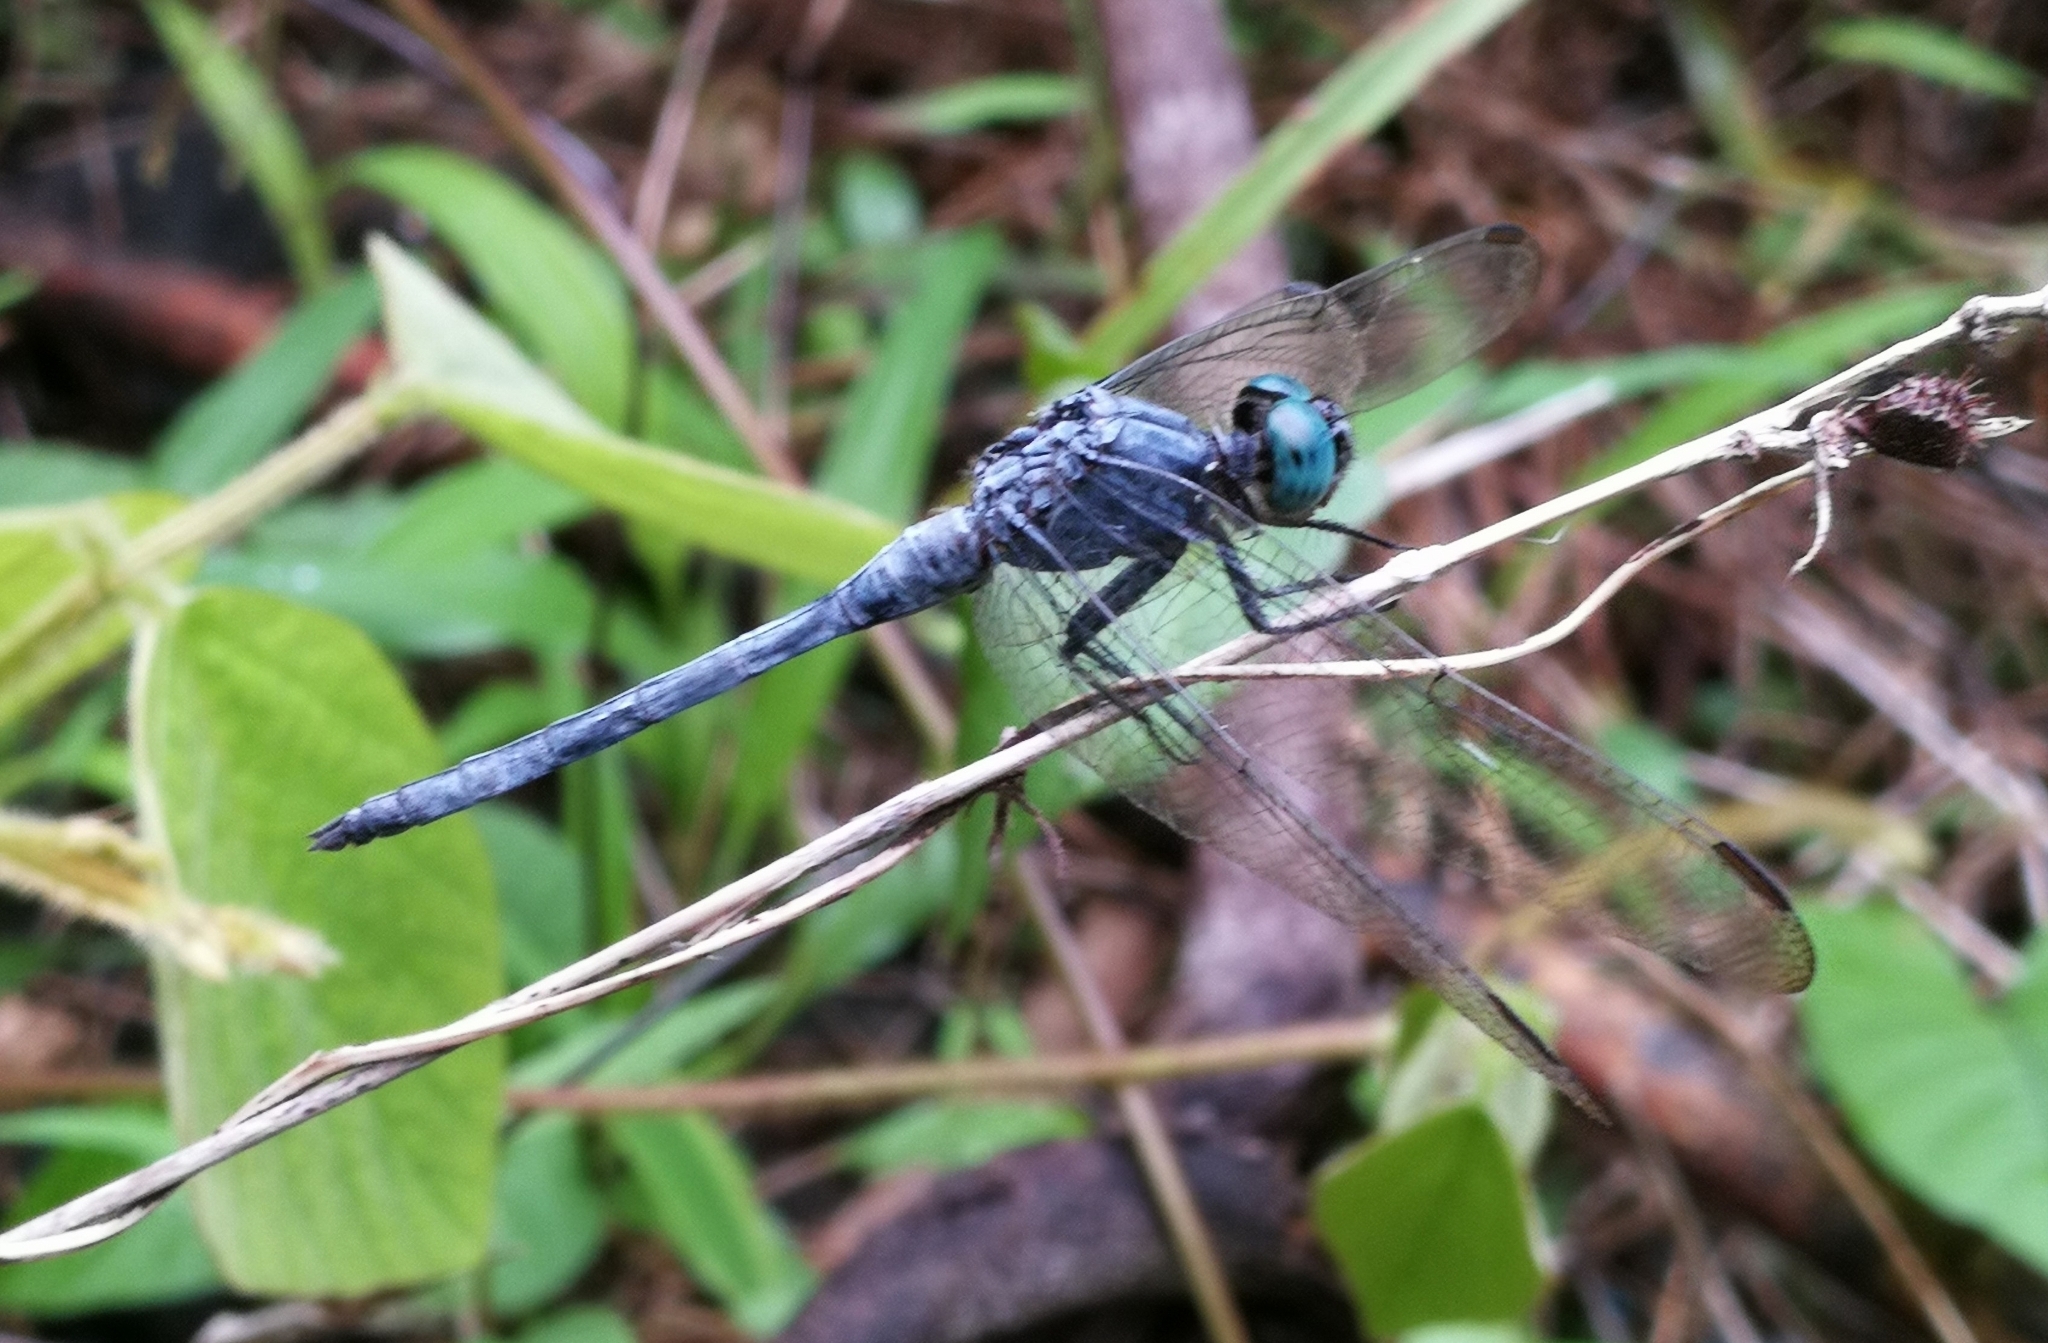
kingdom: Animalia
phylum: Arthropoda
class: Insecta
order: Odonata
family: Libellulidae
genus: Orthetrum
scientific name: Orthetrum luzonicum
